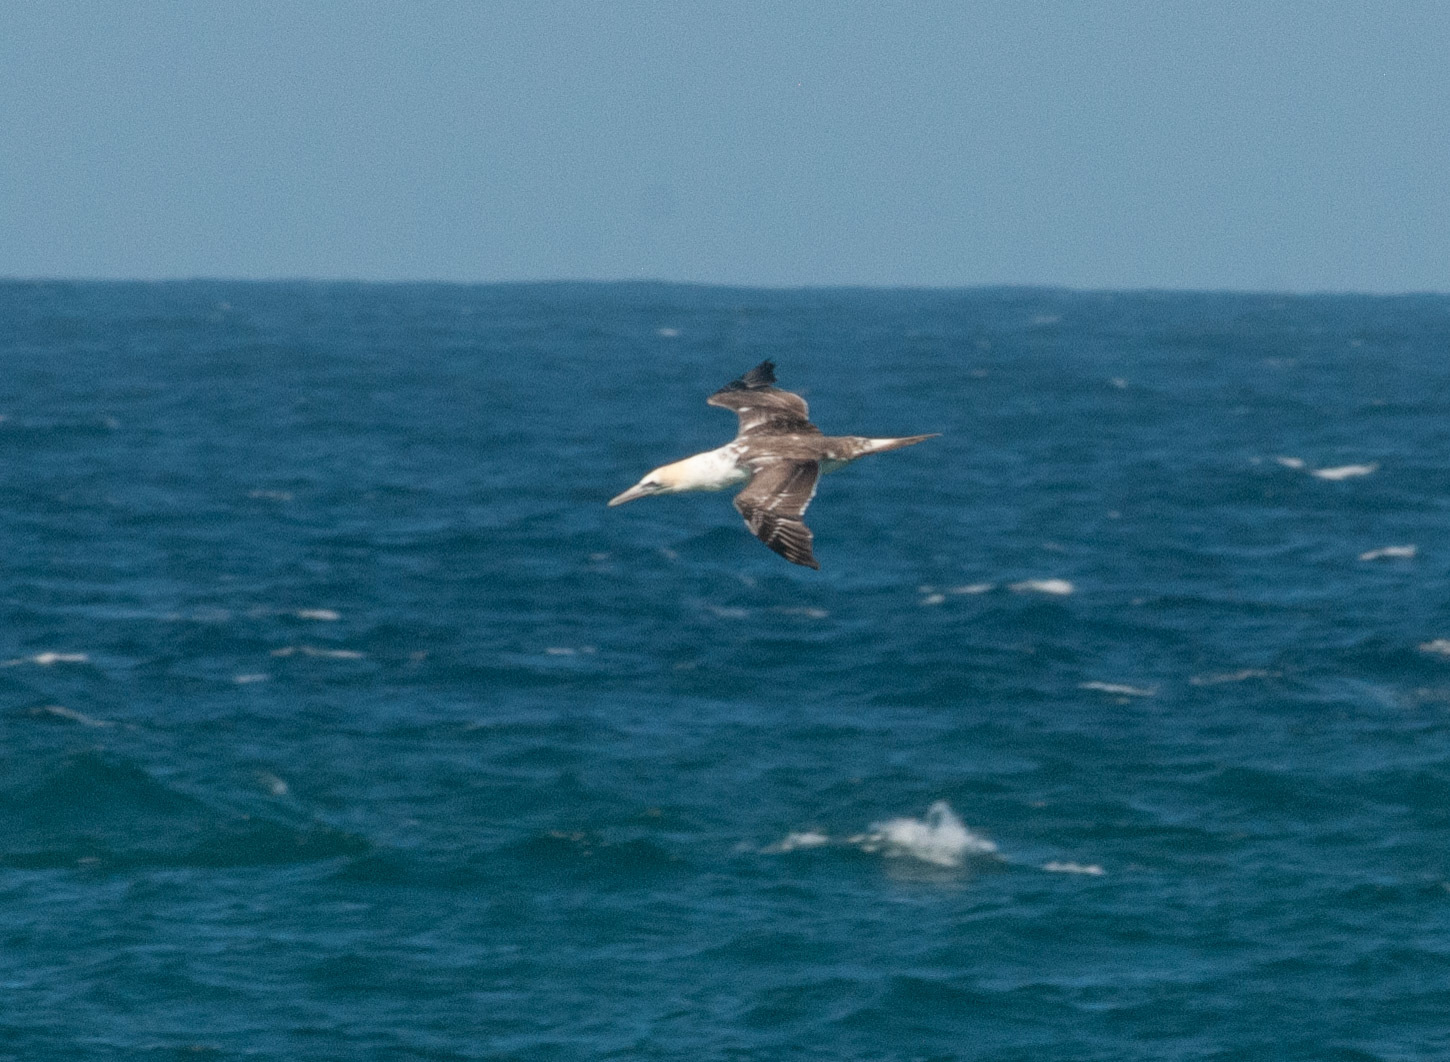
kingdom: Animalia
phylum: Chordata
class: Aves
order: Suliformes
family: Sulidae
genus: Morus
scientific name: Morus serrator
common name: Australasian gannet
